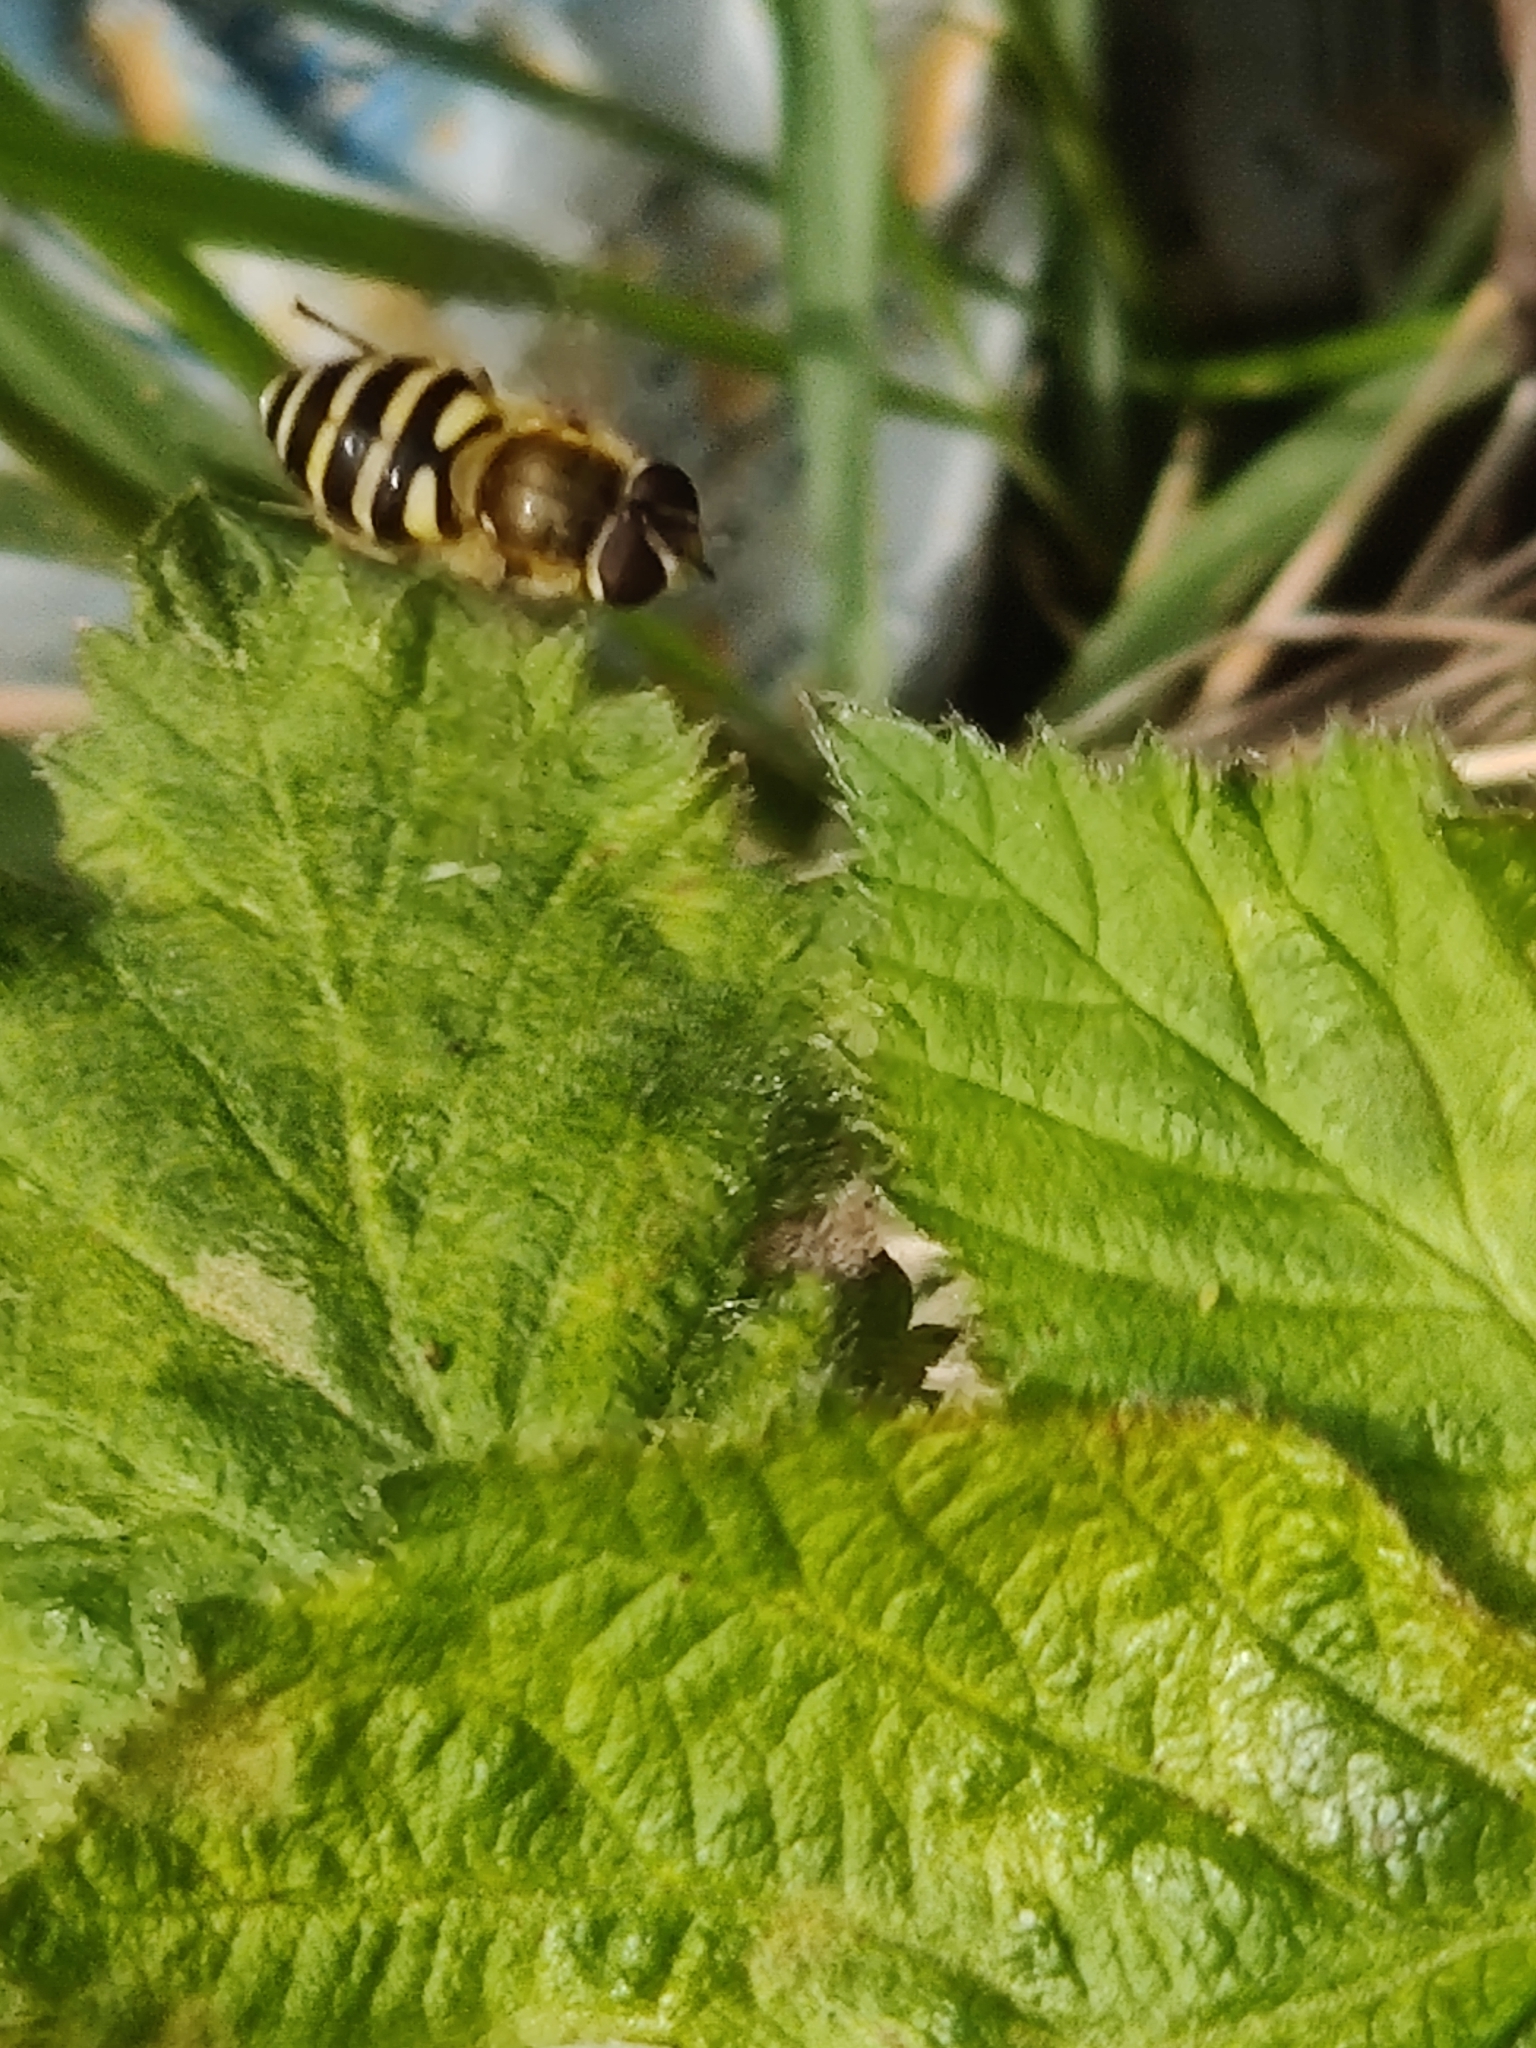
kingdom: Animalia
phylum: Arthropoda
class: Insecta
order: Diptera
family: Syrphidae
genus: Syrphus
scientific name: Syrphus
